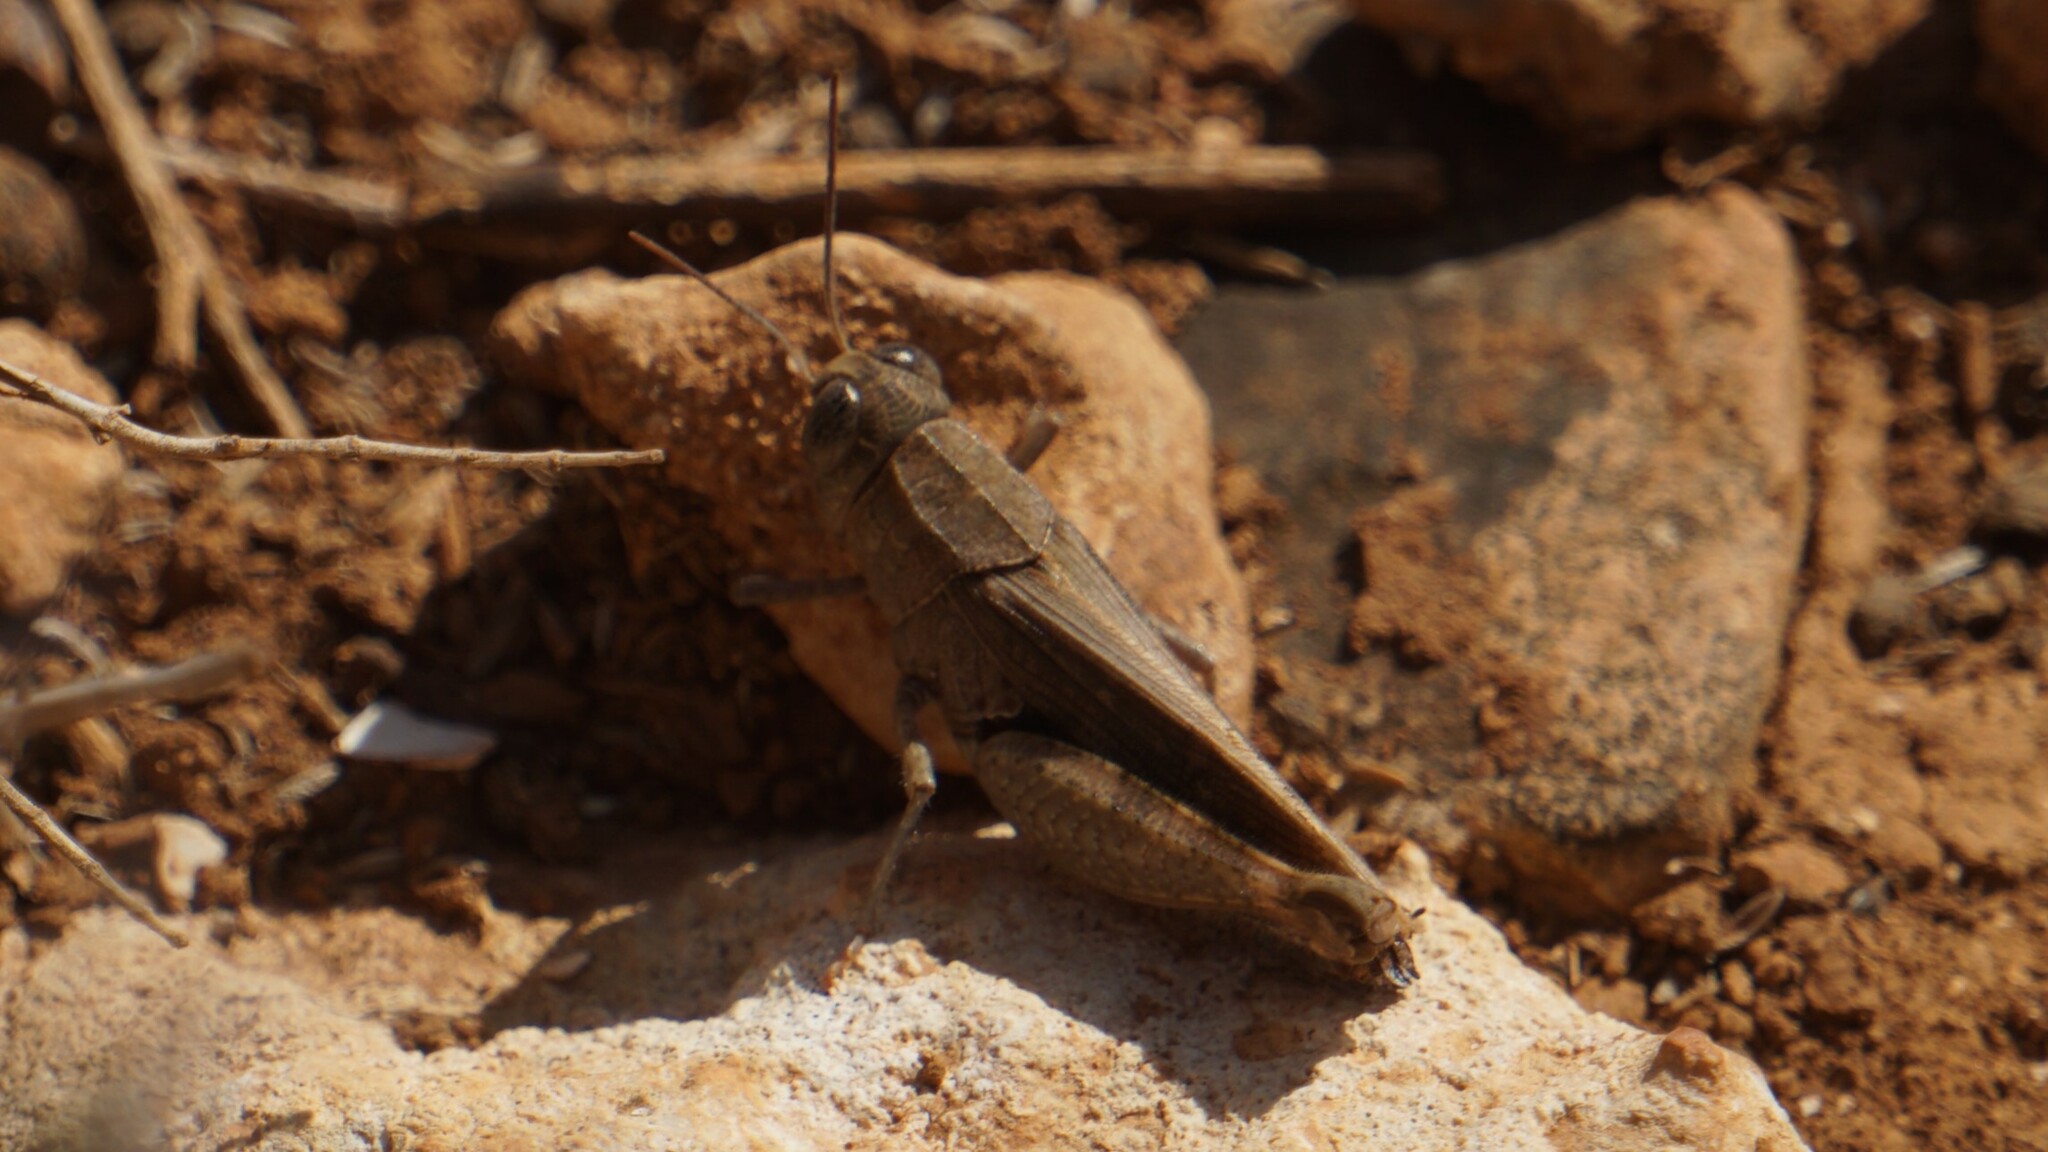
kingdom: Animalia
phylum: Arthropoda
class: Insecta
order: Orthoptera
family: Acrididae
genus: Calliptamus
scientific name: Calliptamus
